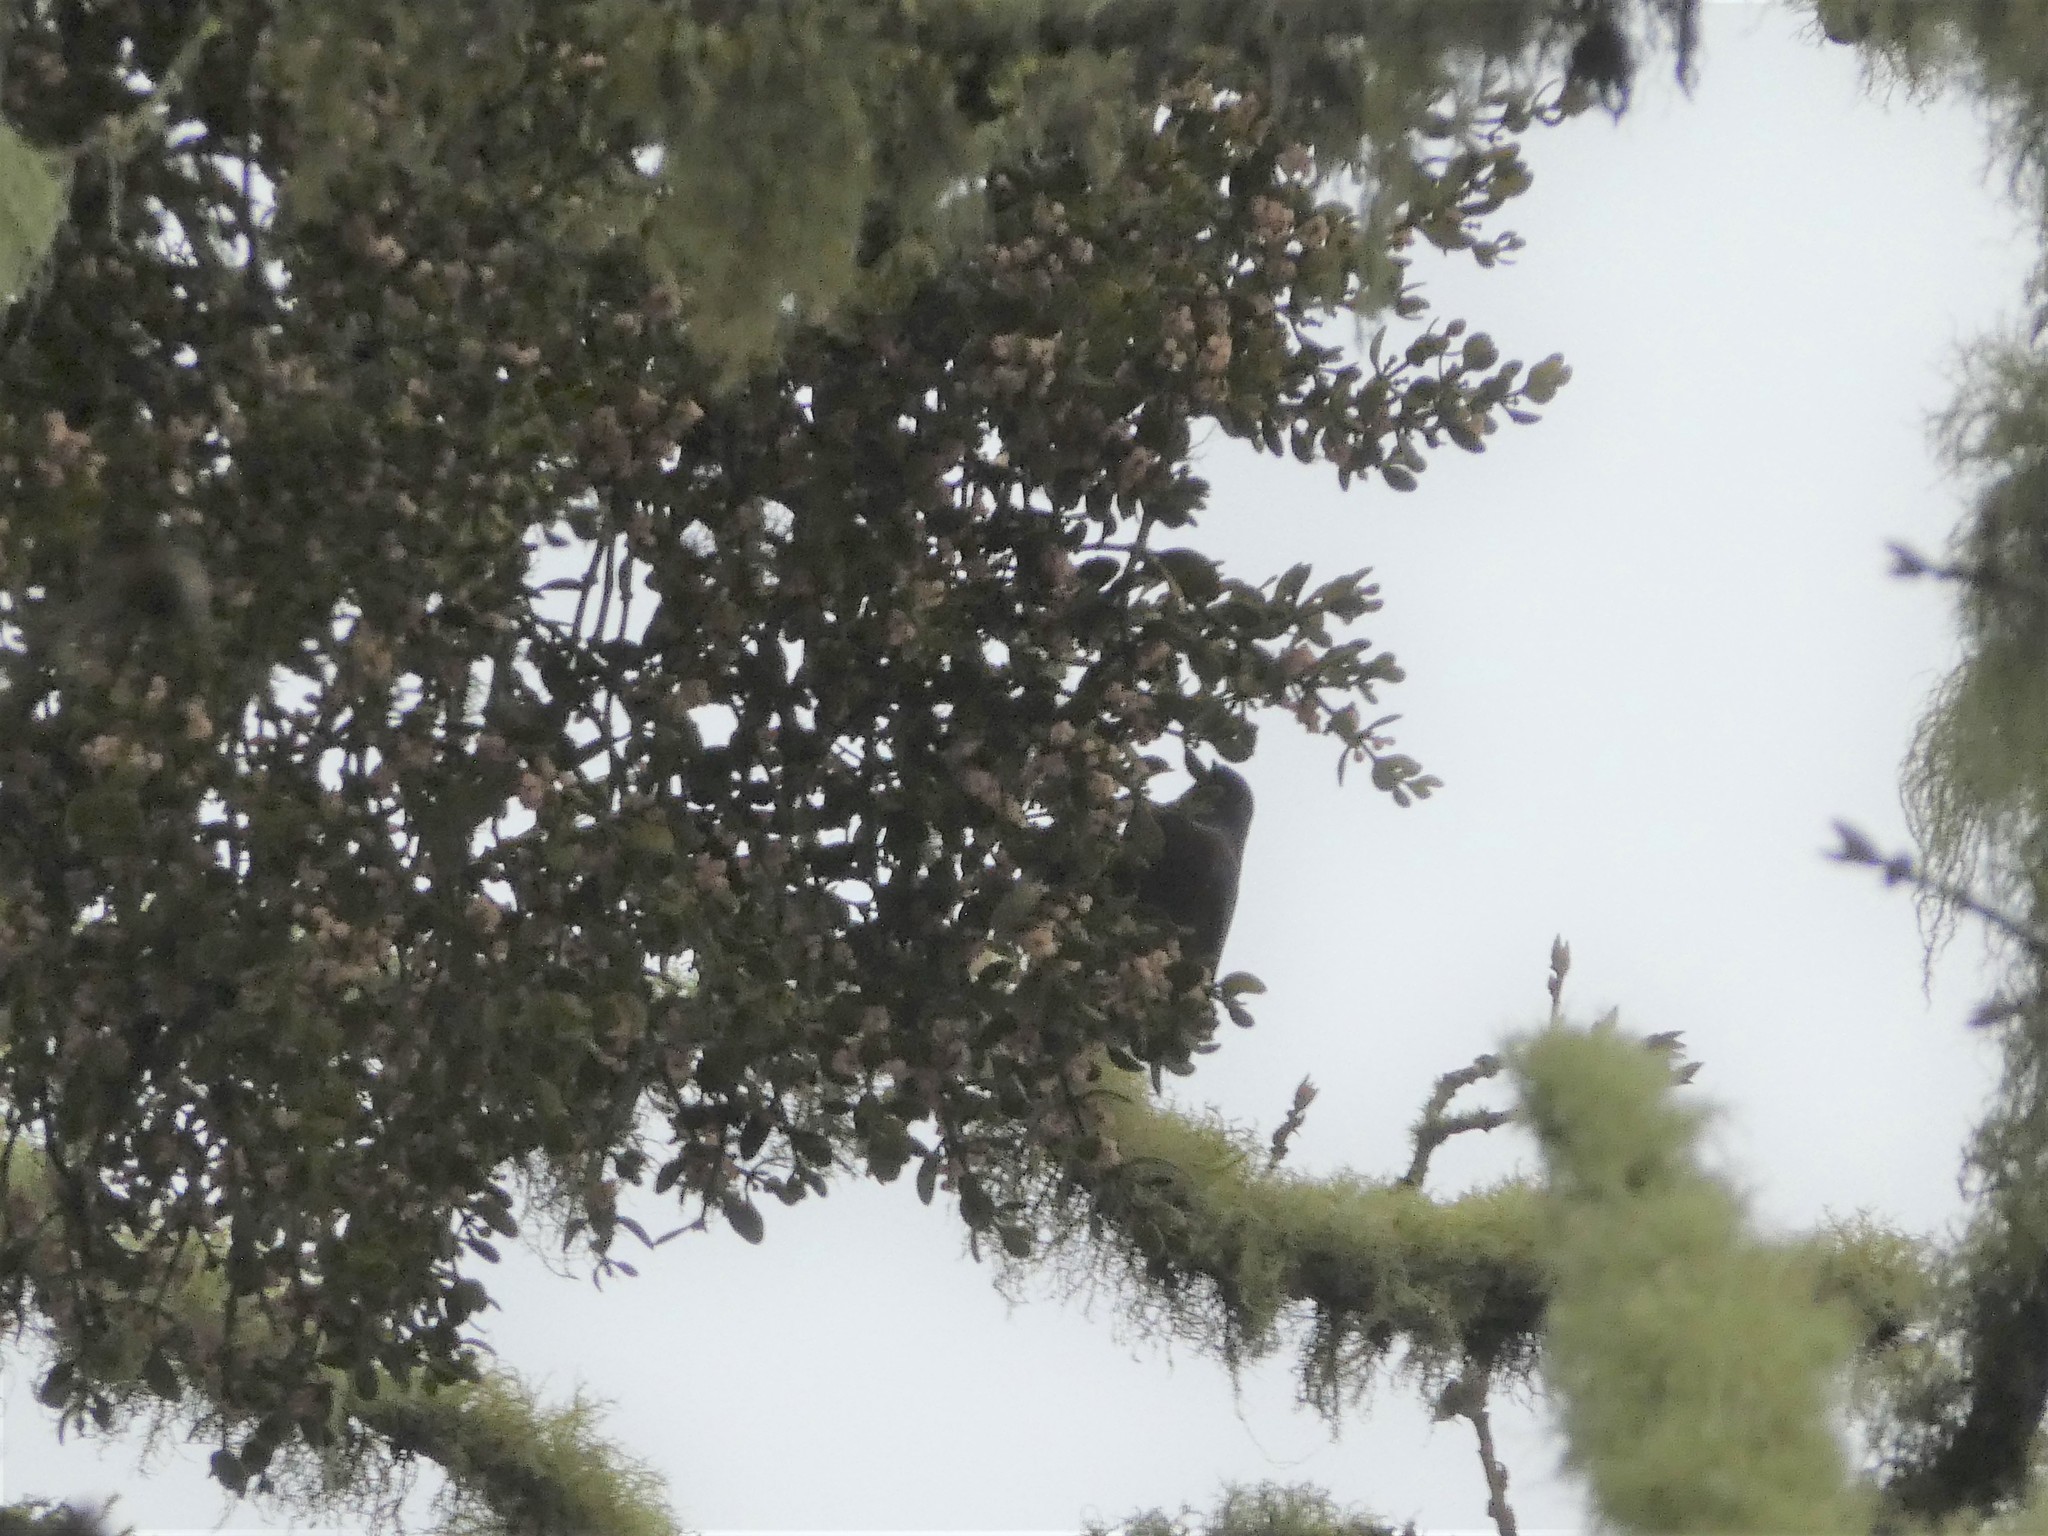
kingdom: Plantae
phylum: Tracheophyta
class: Magnoliopsida
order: Santalales
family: Viscaceae
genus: Phoradendron
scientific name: Phoradendron leucarpum
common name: Pacific mistletoe
